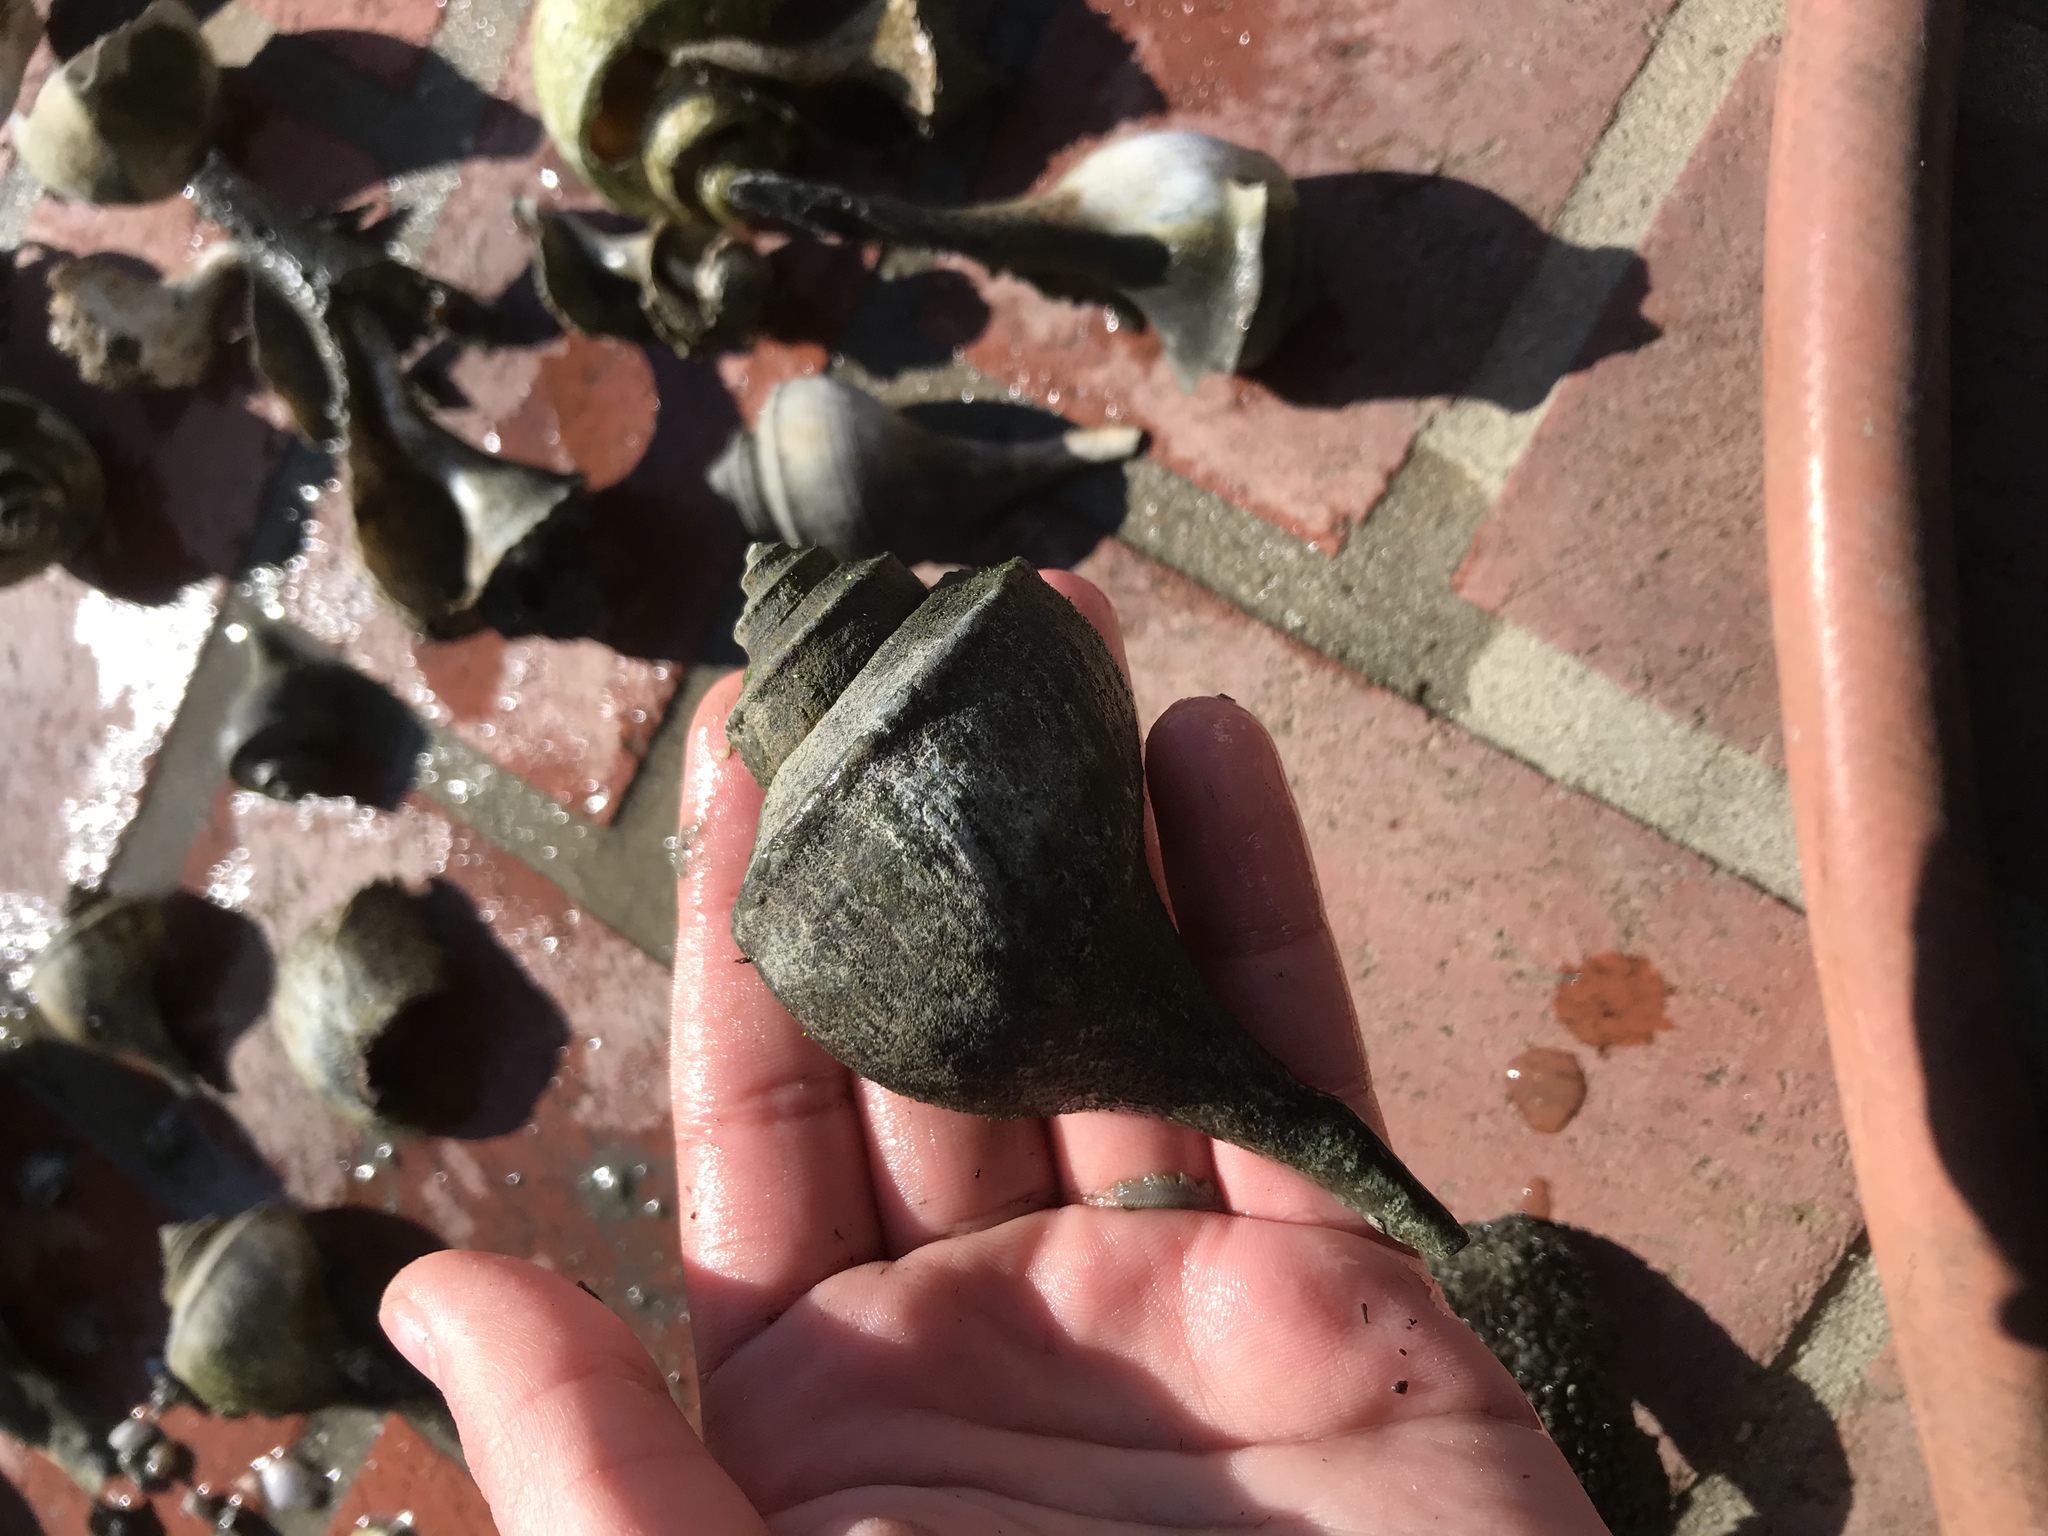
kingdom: Animalia
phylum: Mollusca
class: Gastropoda
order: Neogastropoda
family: Busyconidae
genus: Busycotypus
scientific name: Busycotypus canaliculatus
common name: Channeled whelk
